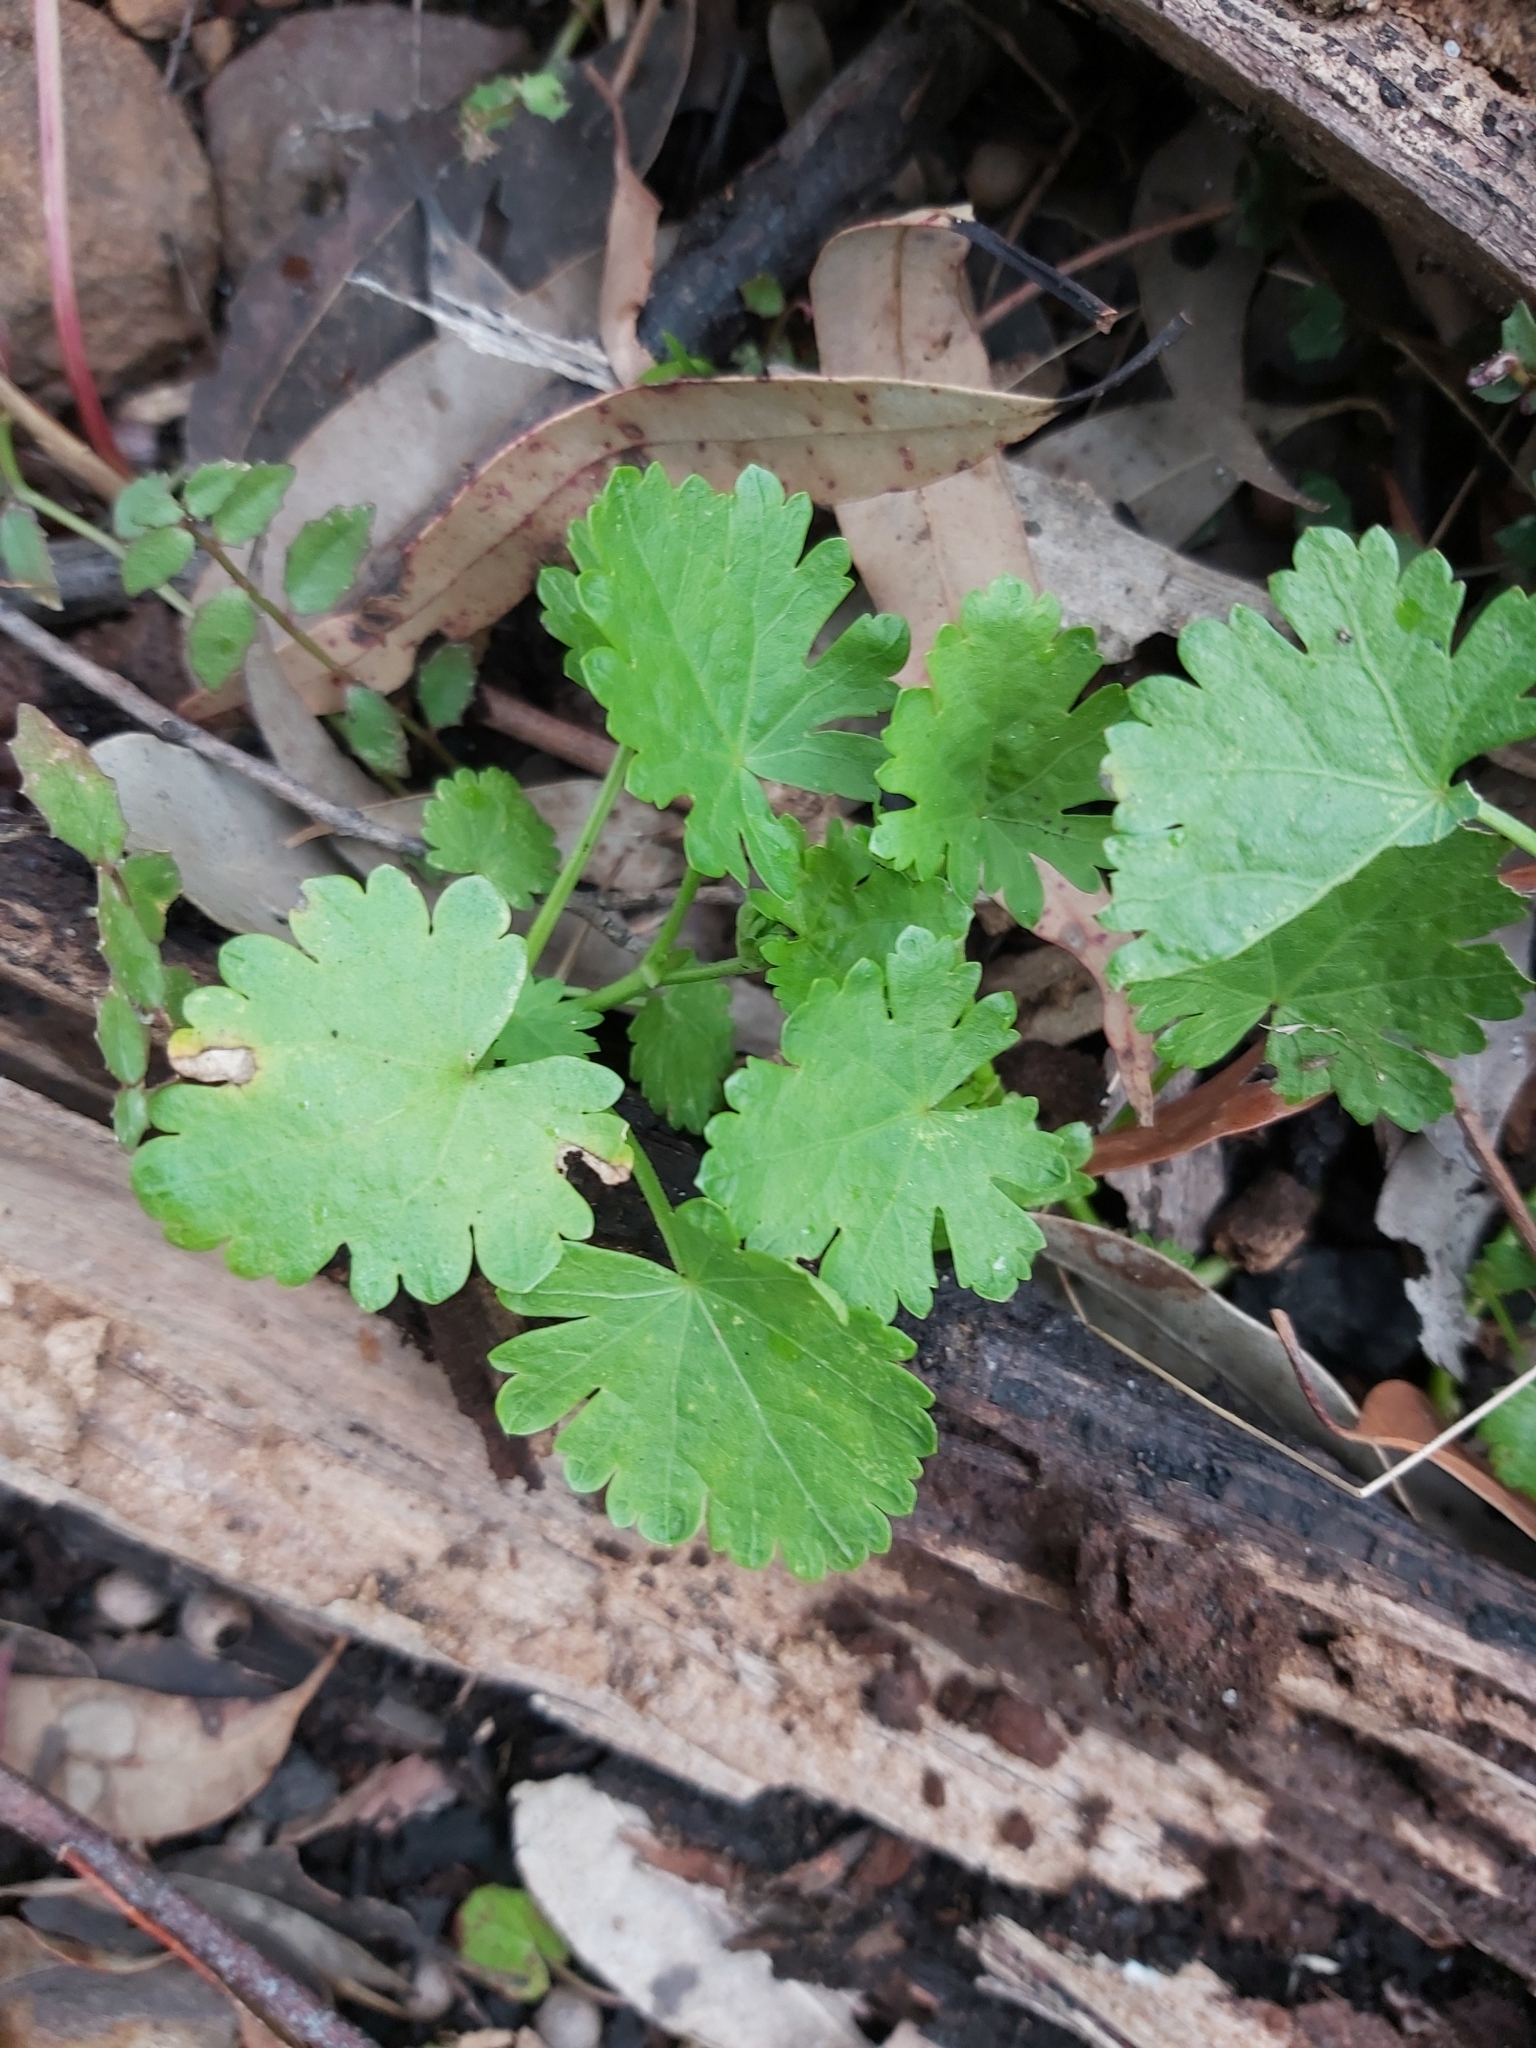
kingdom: Plantae
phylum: Tracheophyta
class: Magnoliopsida
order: Malvales
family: Malvaceae
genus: Modiola
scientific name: Modiola caroliniana
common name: Carolina bristlemallow
